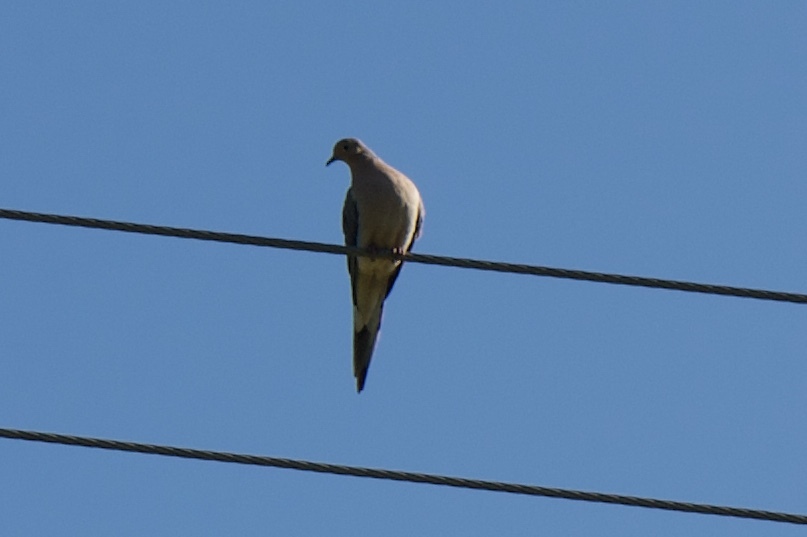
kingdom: Animalia
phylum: Chordata
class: Aves
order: Columbiformes
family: Columbidae
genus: Zenaida
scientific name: Zenaida macroura
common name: Mourning dove
